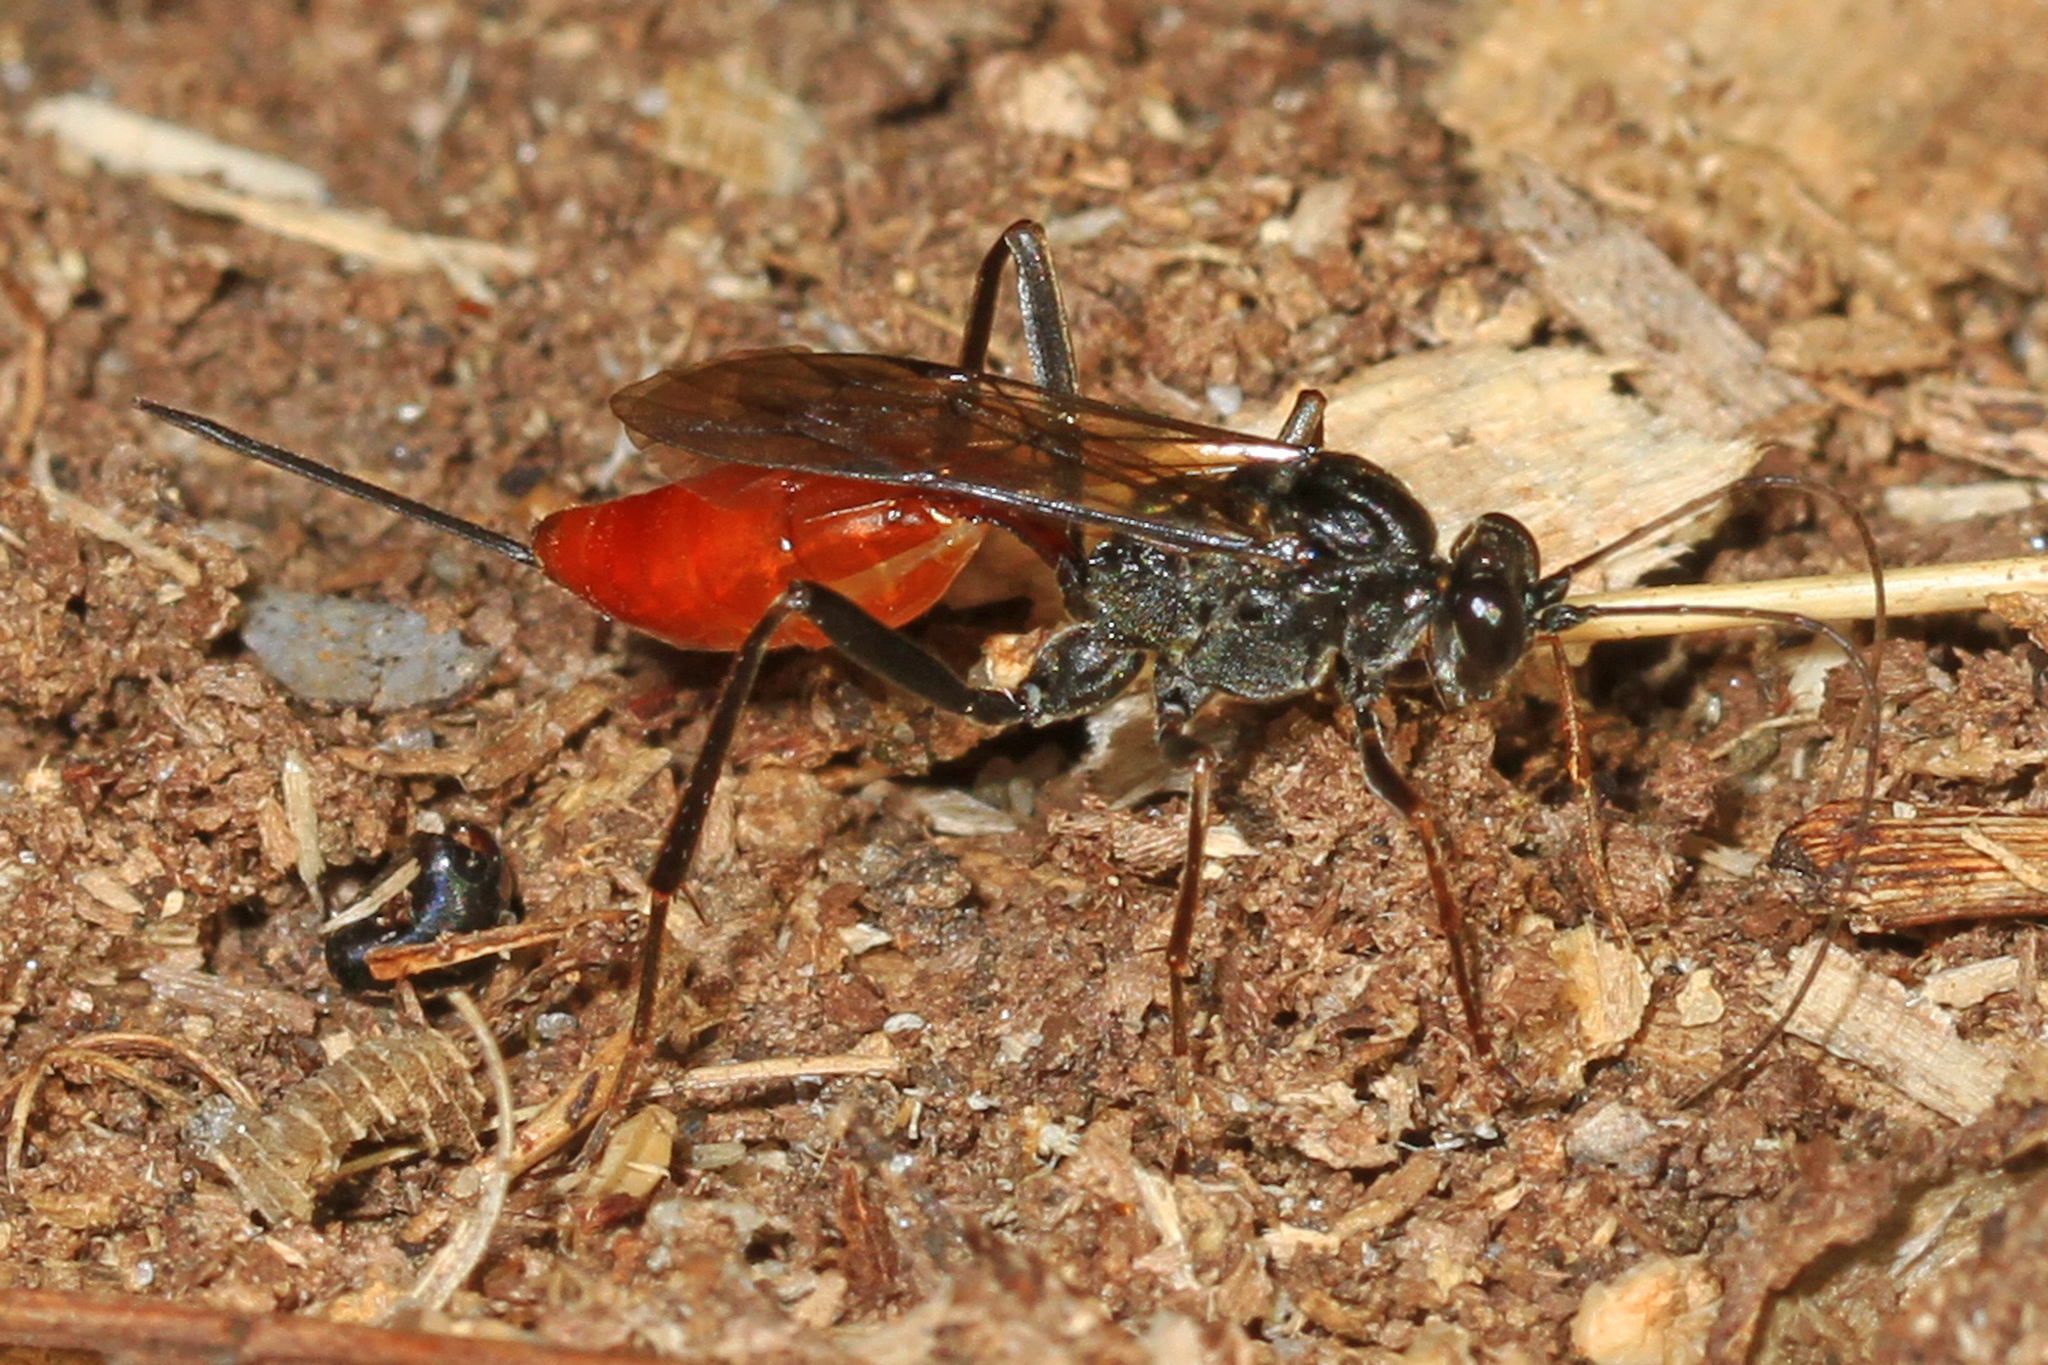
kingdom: Animalia
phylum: Arthropoda
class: Insecta
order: Hymenoptera
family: Ichneumonidae
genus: Cryptus
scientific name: Cryptus albitarsis
